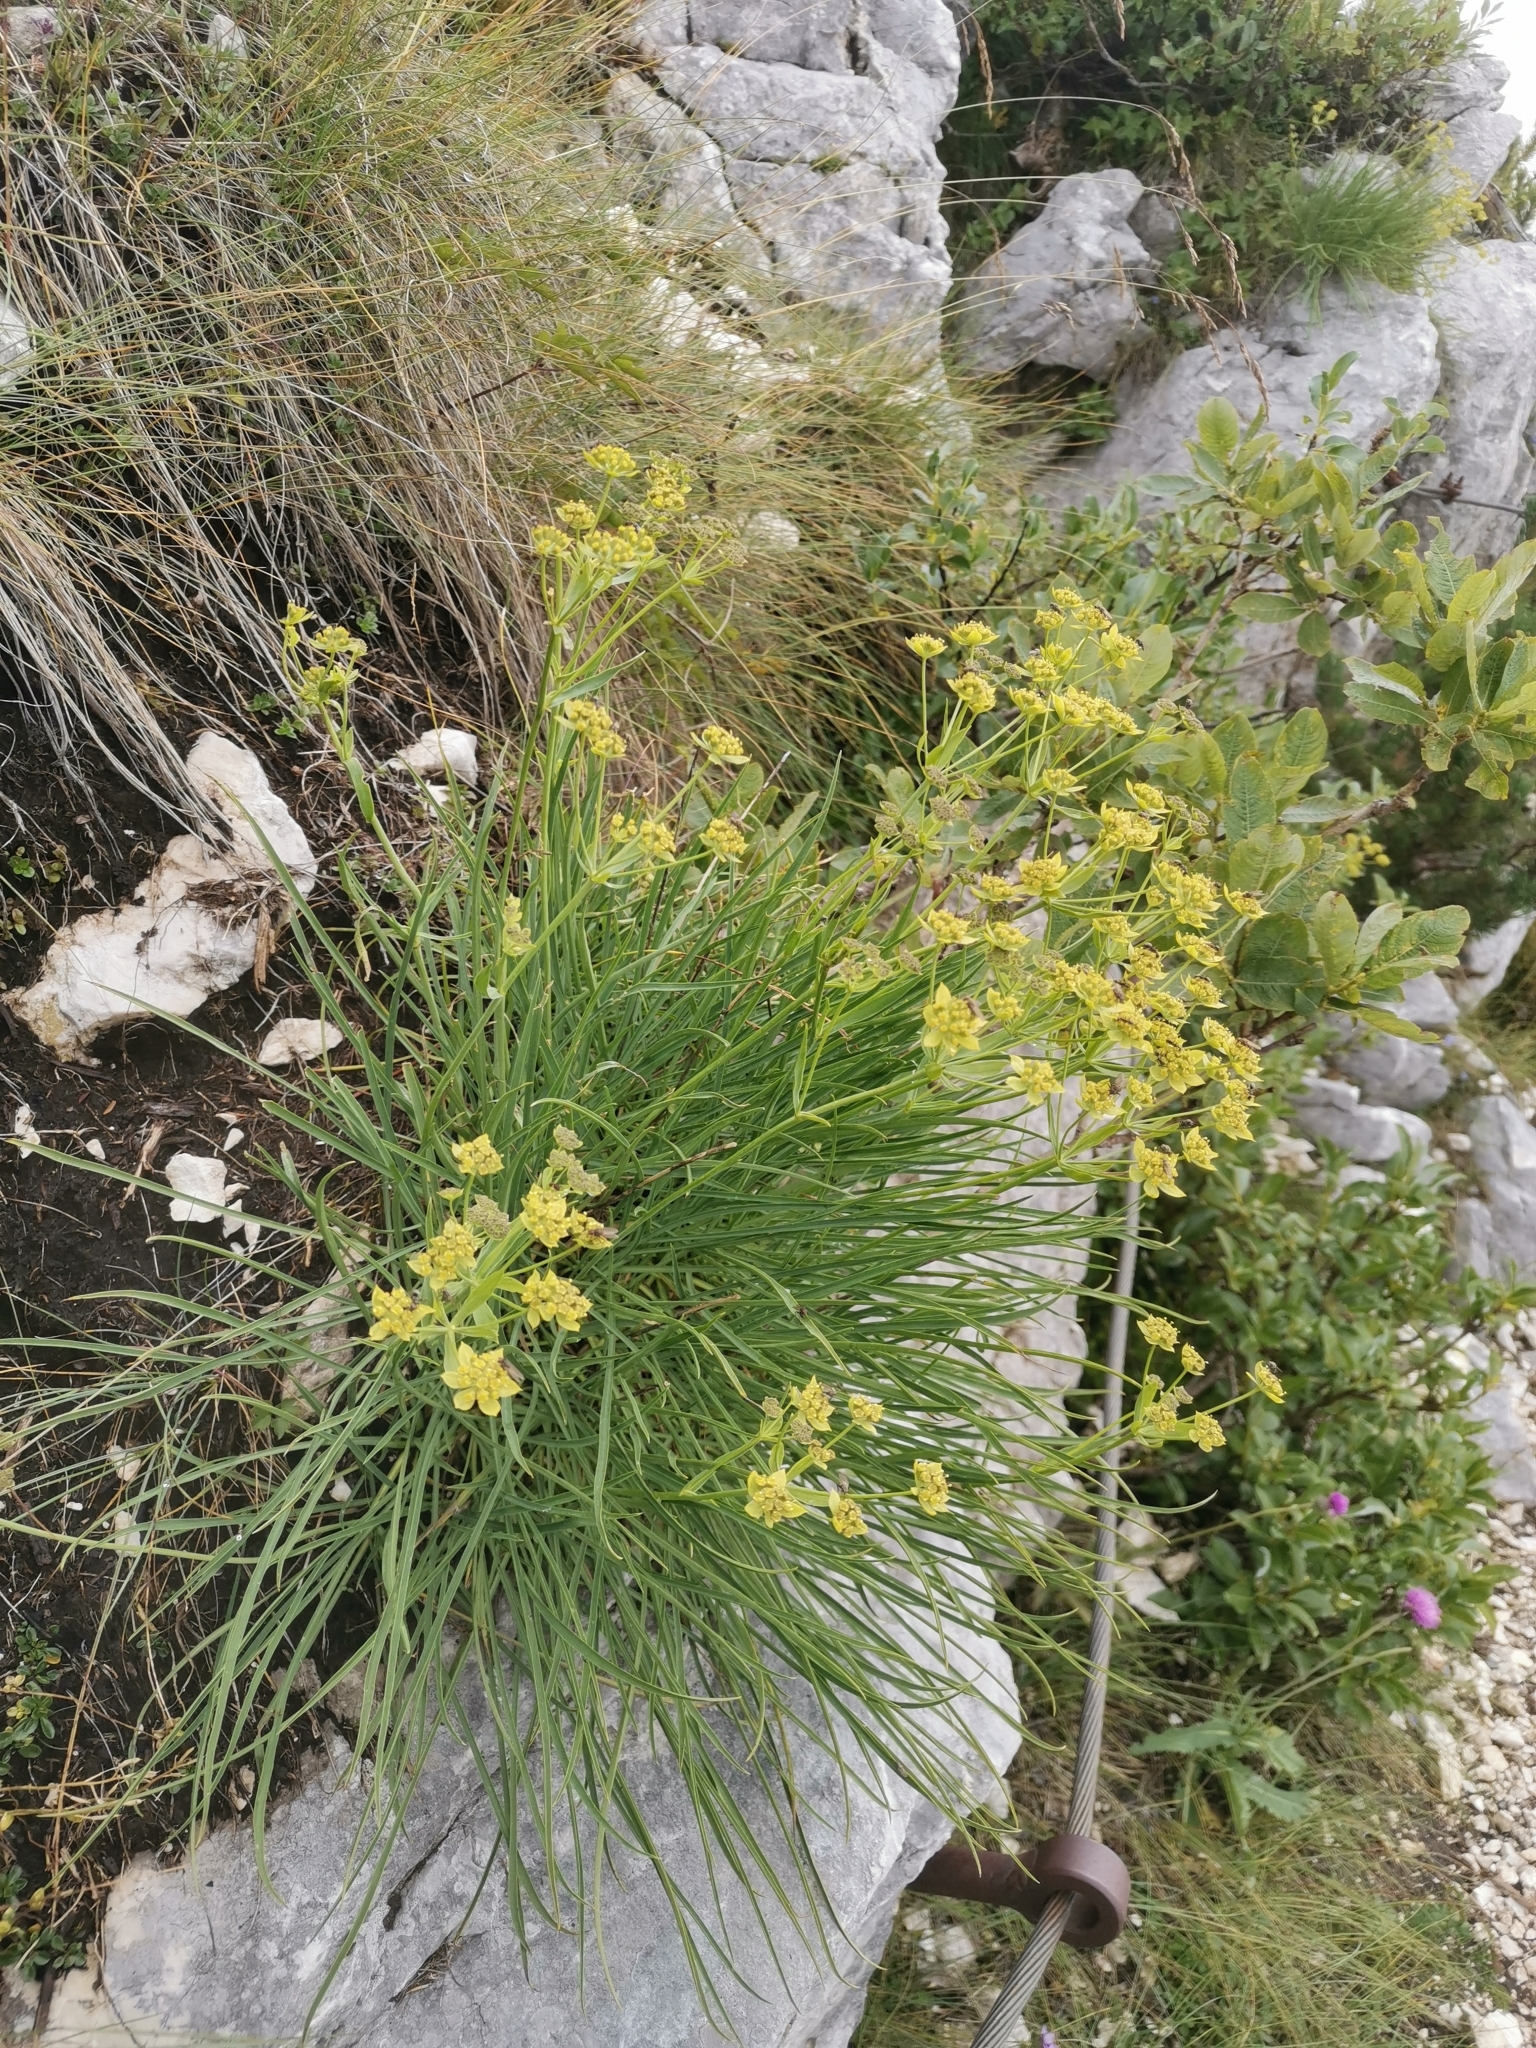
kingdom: Plantae
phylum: Tracheophyta
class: Magnoliopsida
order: Apiales
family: Apiaceae
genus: Bupleurum
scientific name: Bupleurum petraeum
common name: Rock hare's-ear
